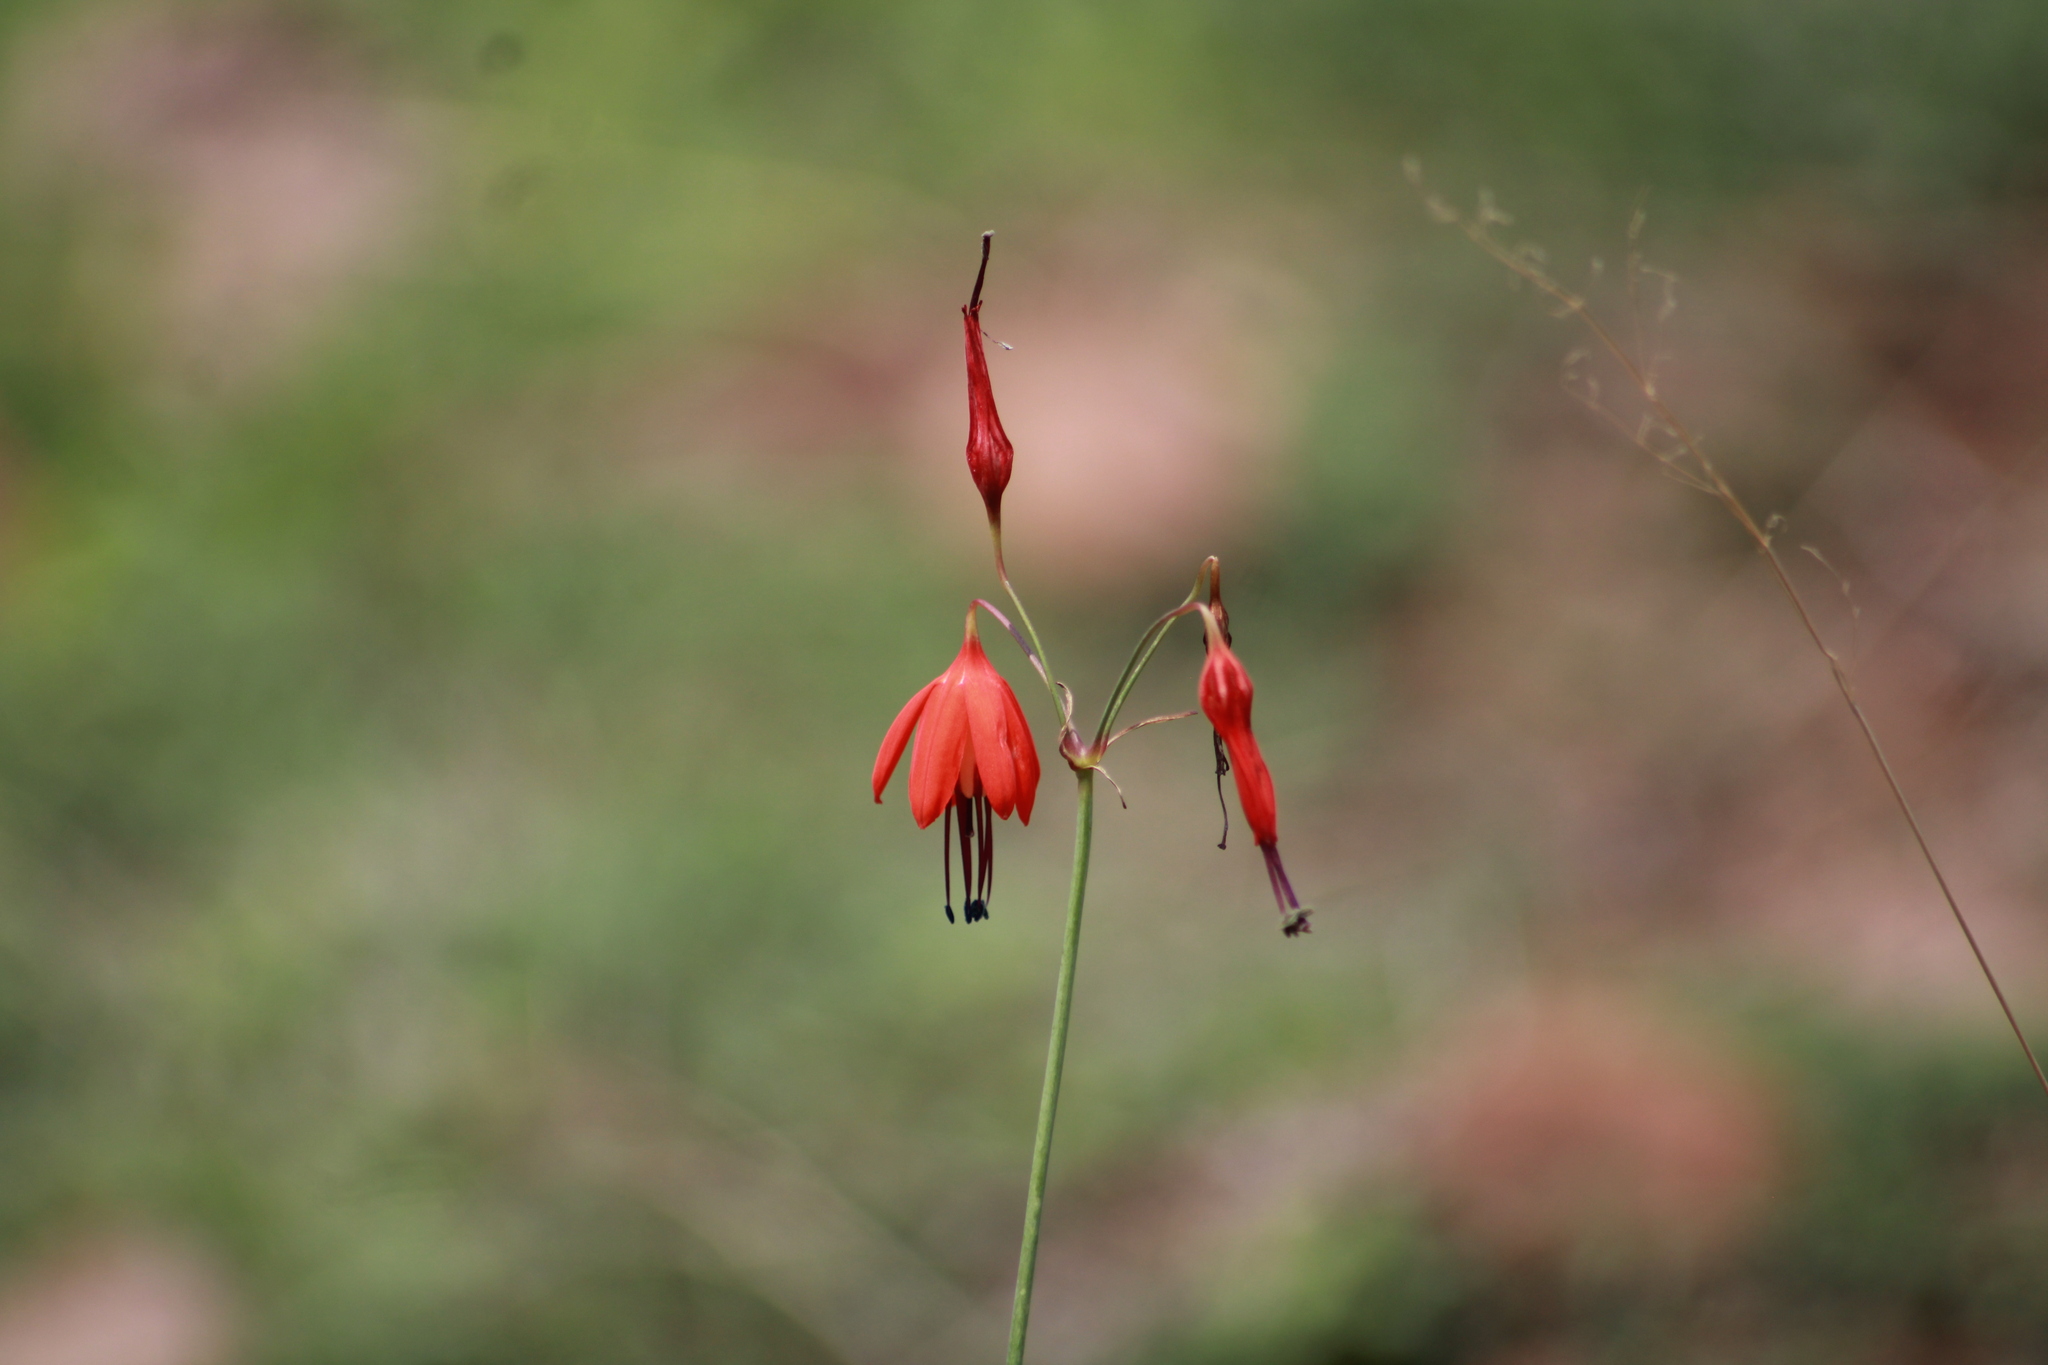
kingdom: Plantae
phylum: Tracheophyta
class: Liliopsida
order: Asparagales
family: Asparagaceae
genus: Bessera
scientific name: Bessera elegans
